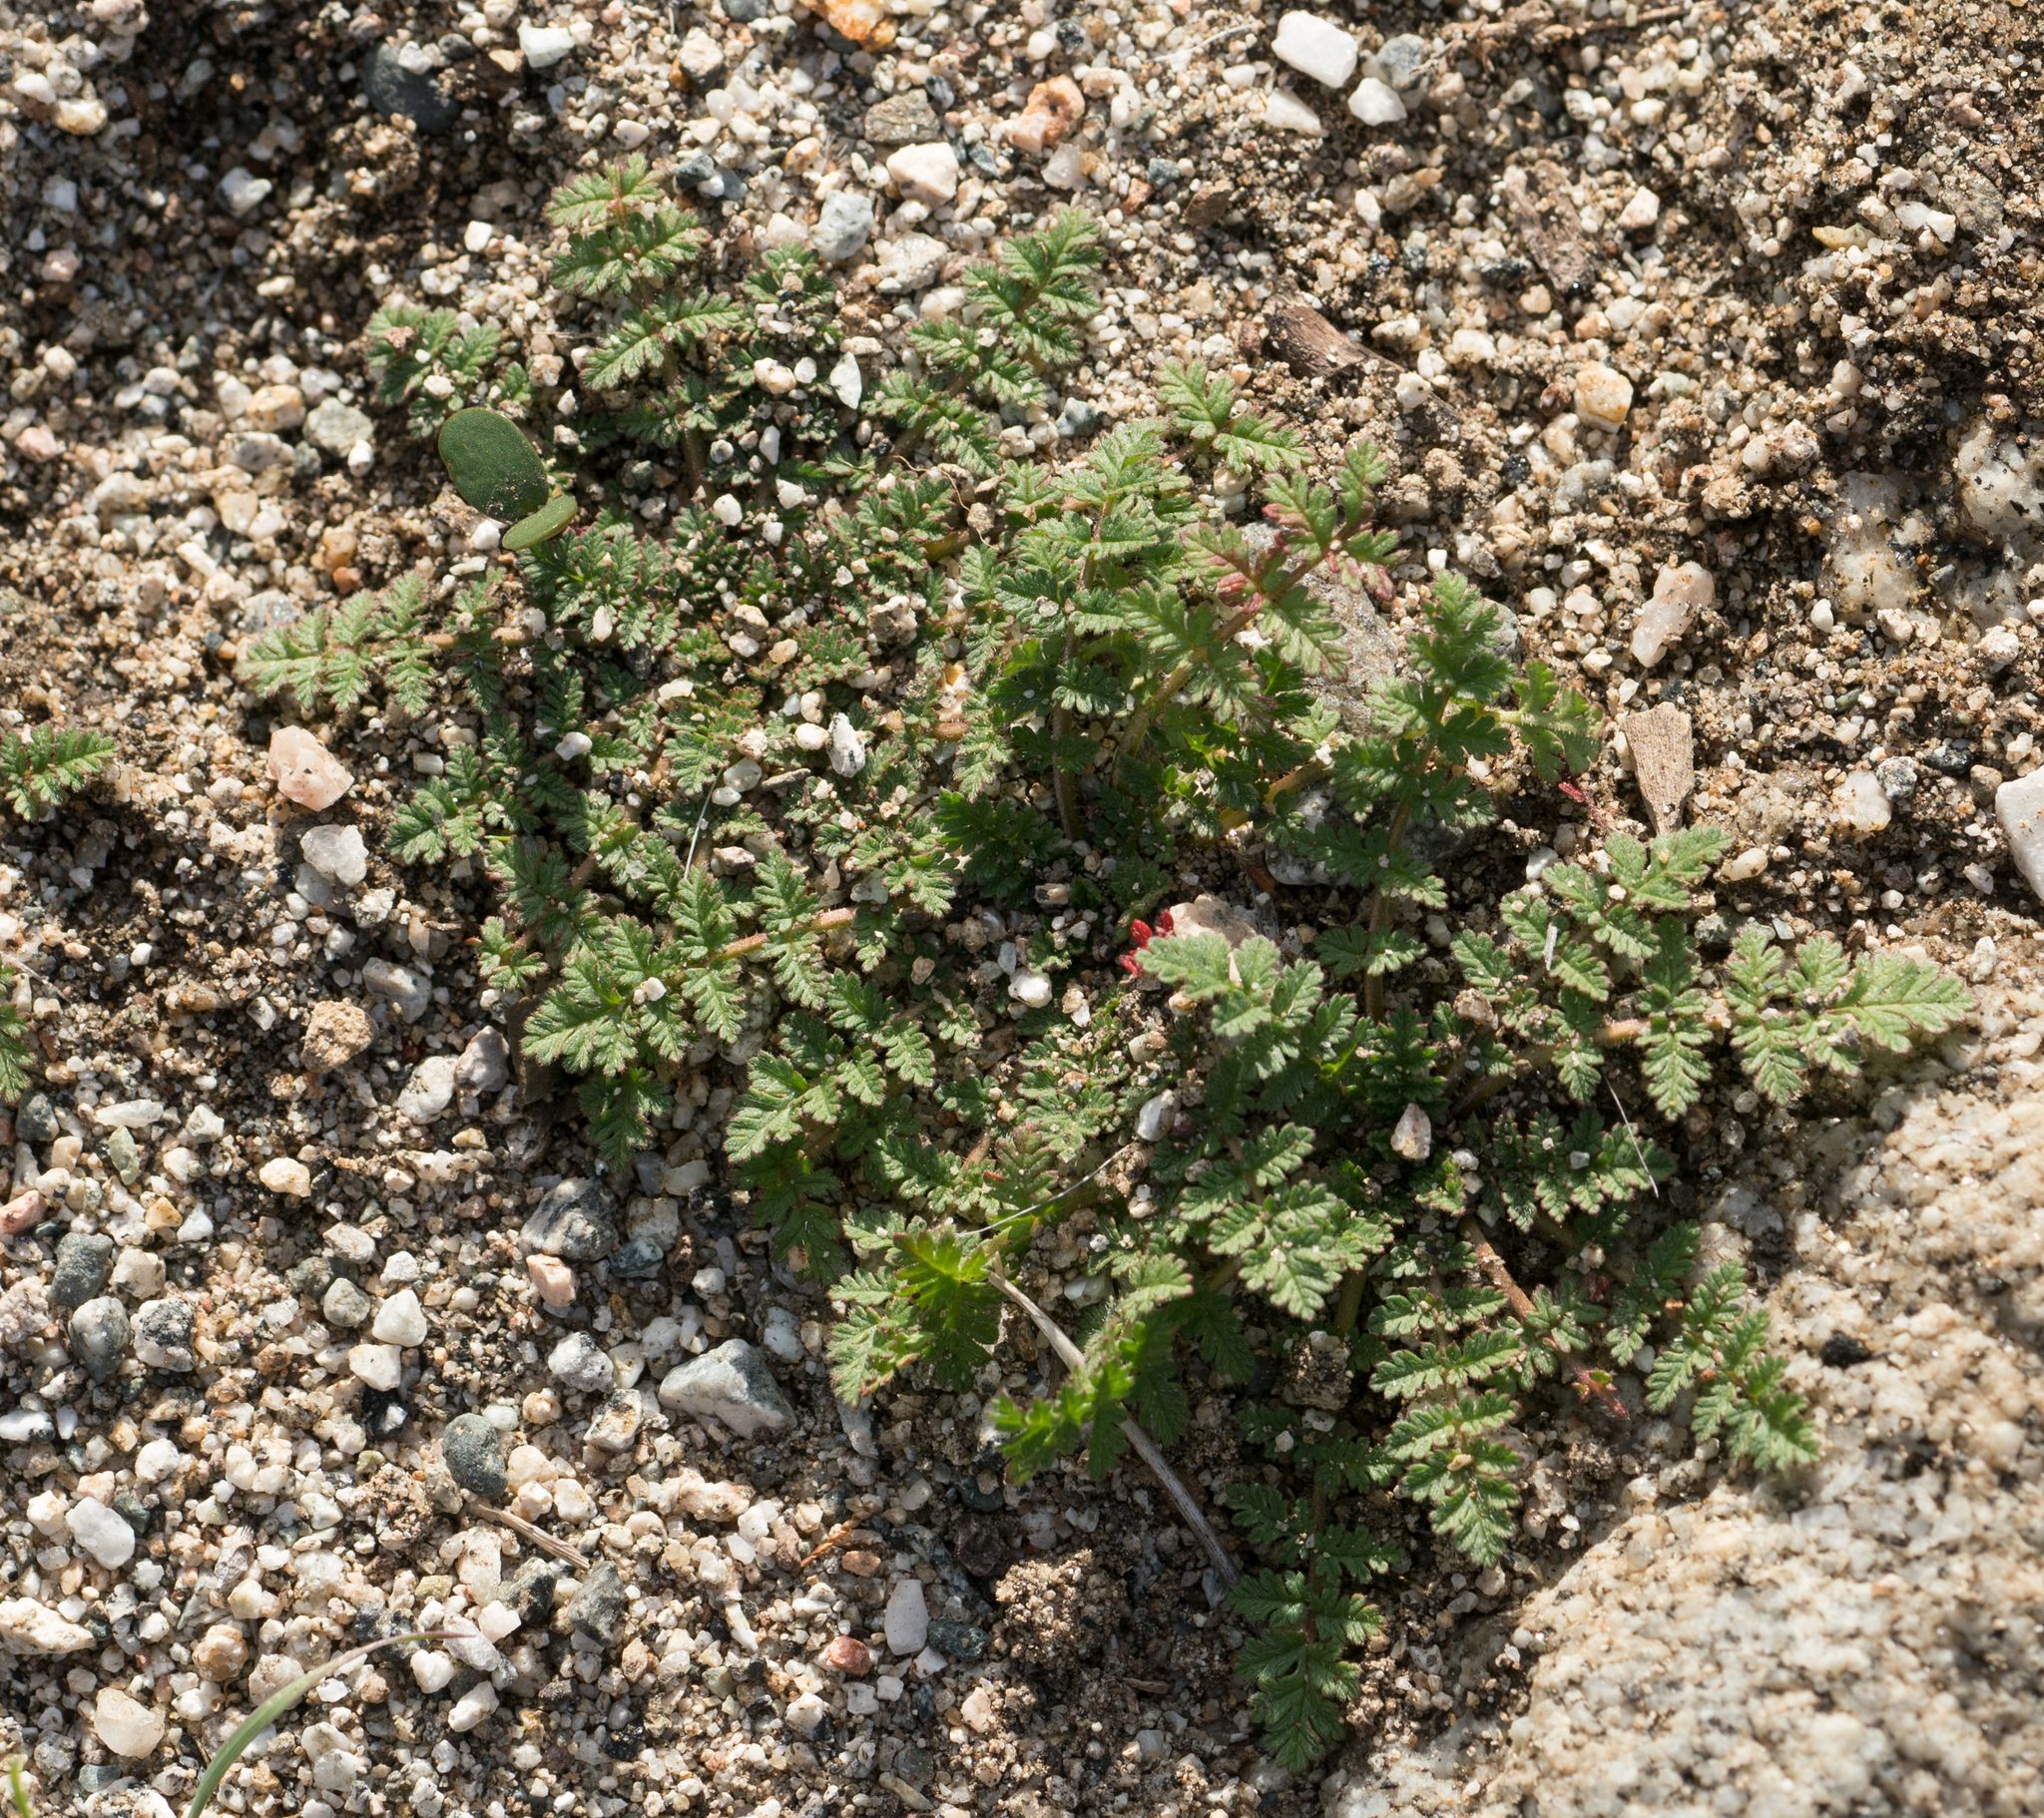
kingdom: Plantae
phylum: Tracheophyta
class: Magnoliopsida
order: Geraniales
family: Geraniaceae
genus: Erodium
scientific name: Erodium cicutarium
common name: Common stork's-bill
